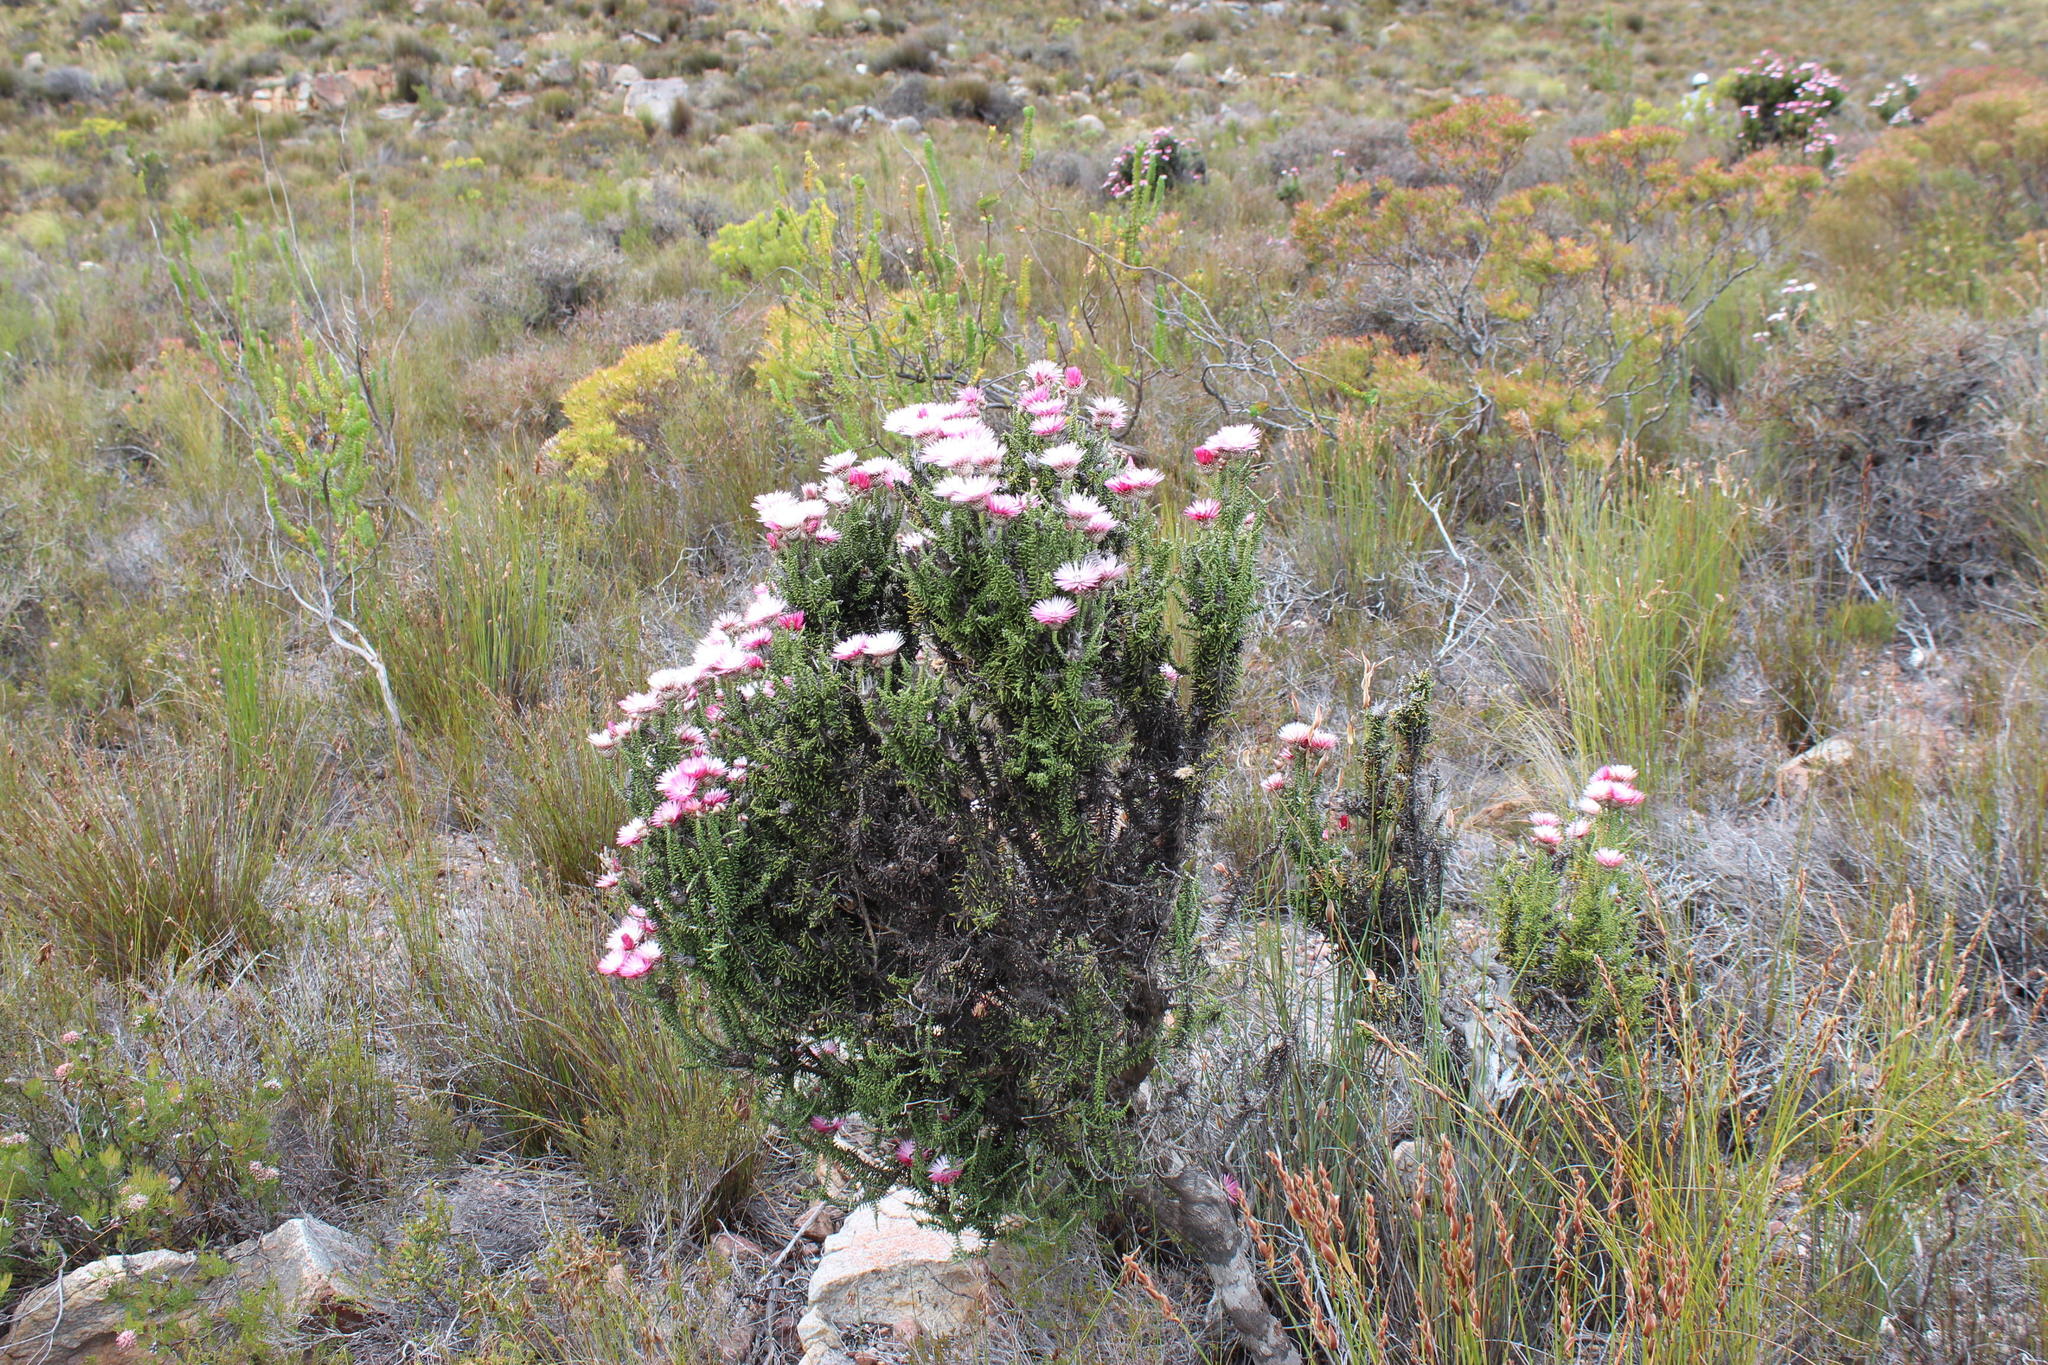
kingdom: Plantae
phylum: Tracheophyta
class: Magnoliopsida
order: Asterales
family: Asteraceae
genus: Phaenocoma
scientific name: Phaenocoma prolifera
